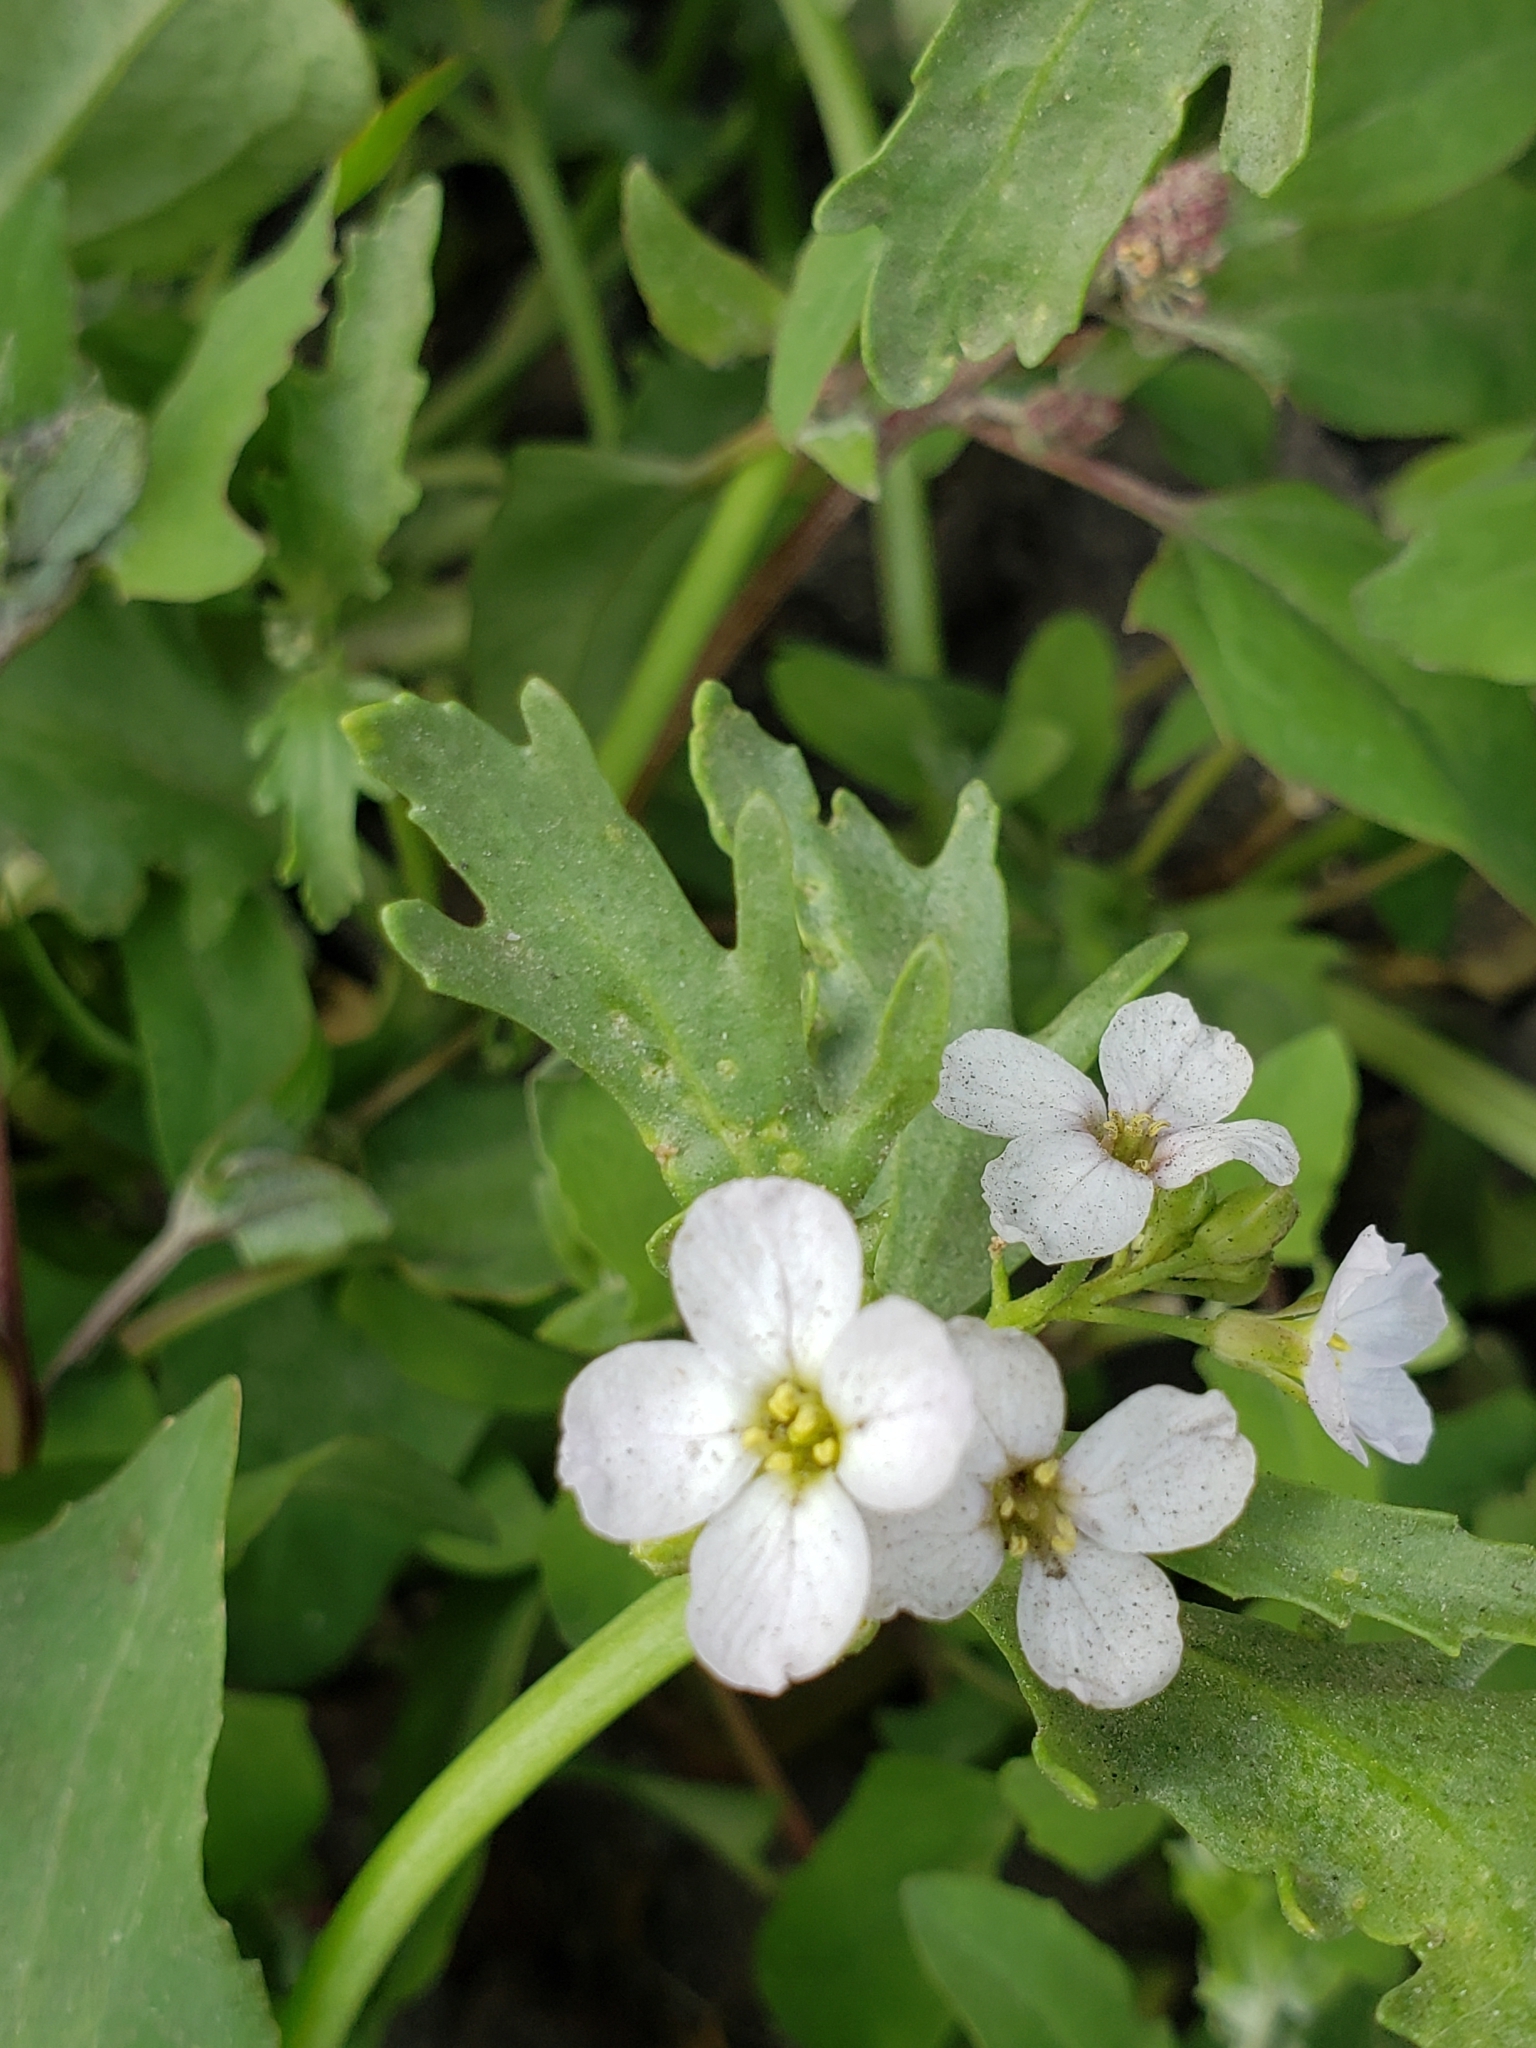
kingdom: Plantae
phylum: Tracheophyta
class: Magnoliopsida
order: Brassicales
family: Brassicaceae
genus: Cakile
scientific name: Cakile arctica
